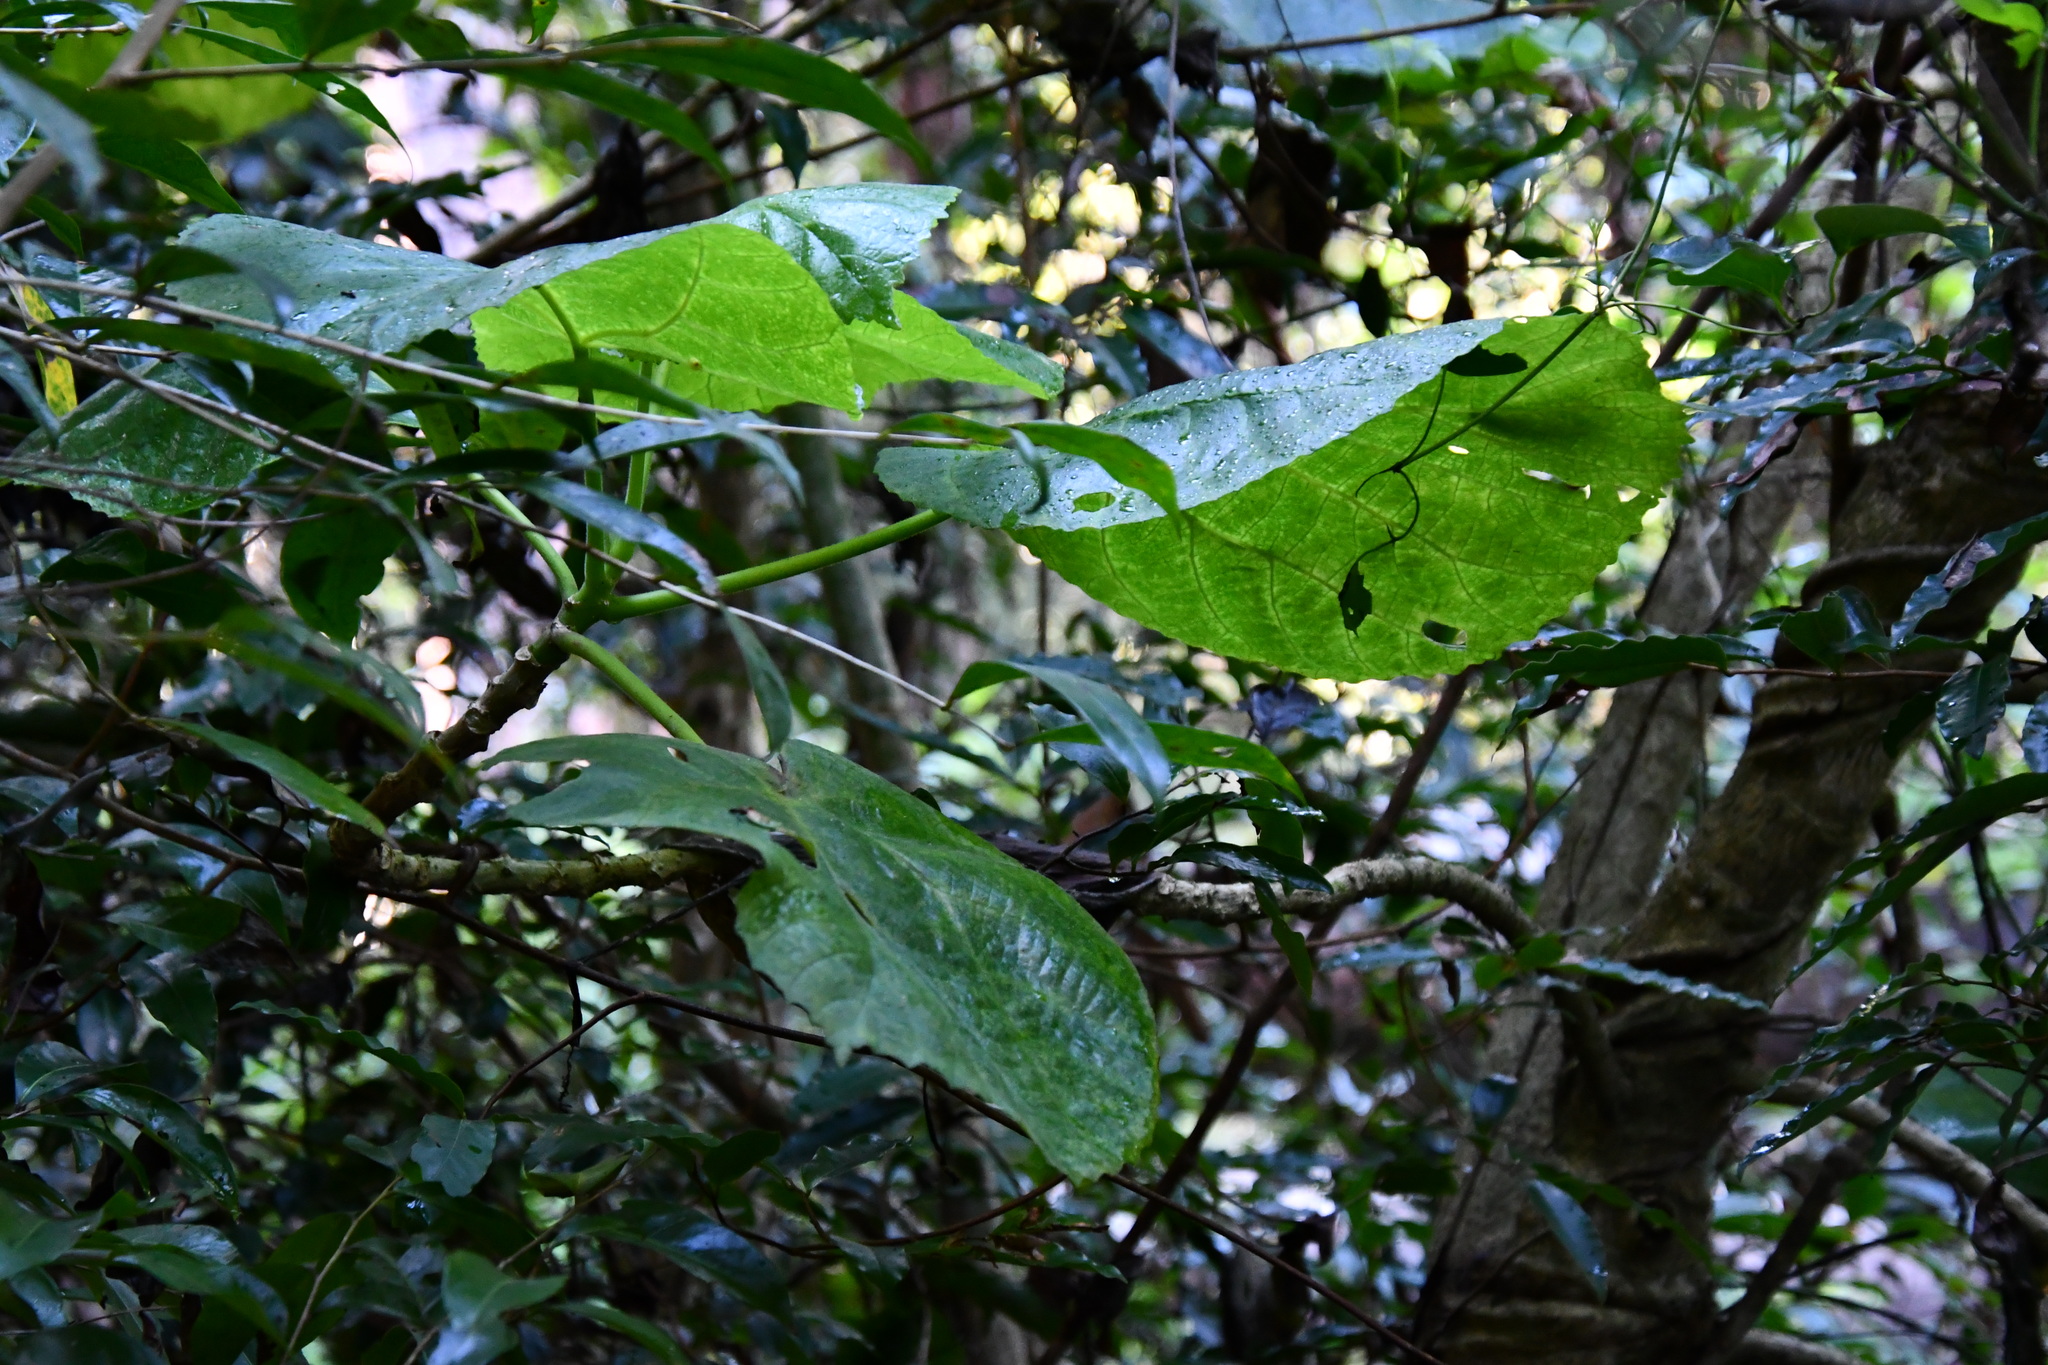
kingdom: Plantae
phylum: Tracheophyta
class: Magnoliopsida
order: Rosales
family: Urticaceae
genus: Dendrocnide
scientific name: Dendrocnide excelsa
